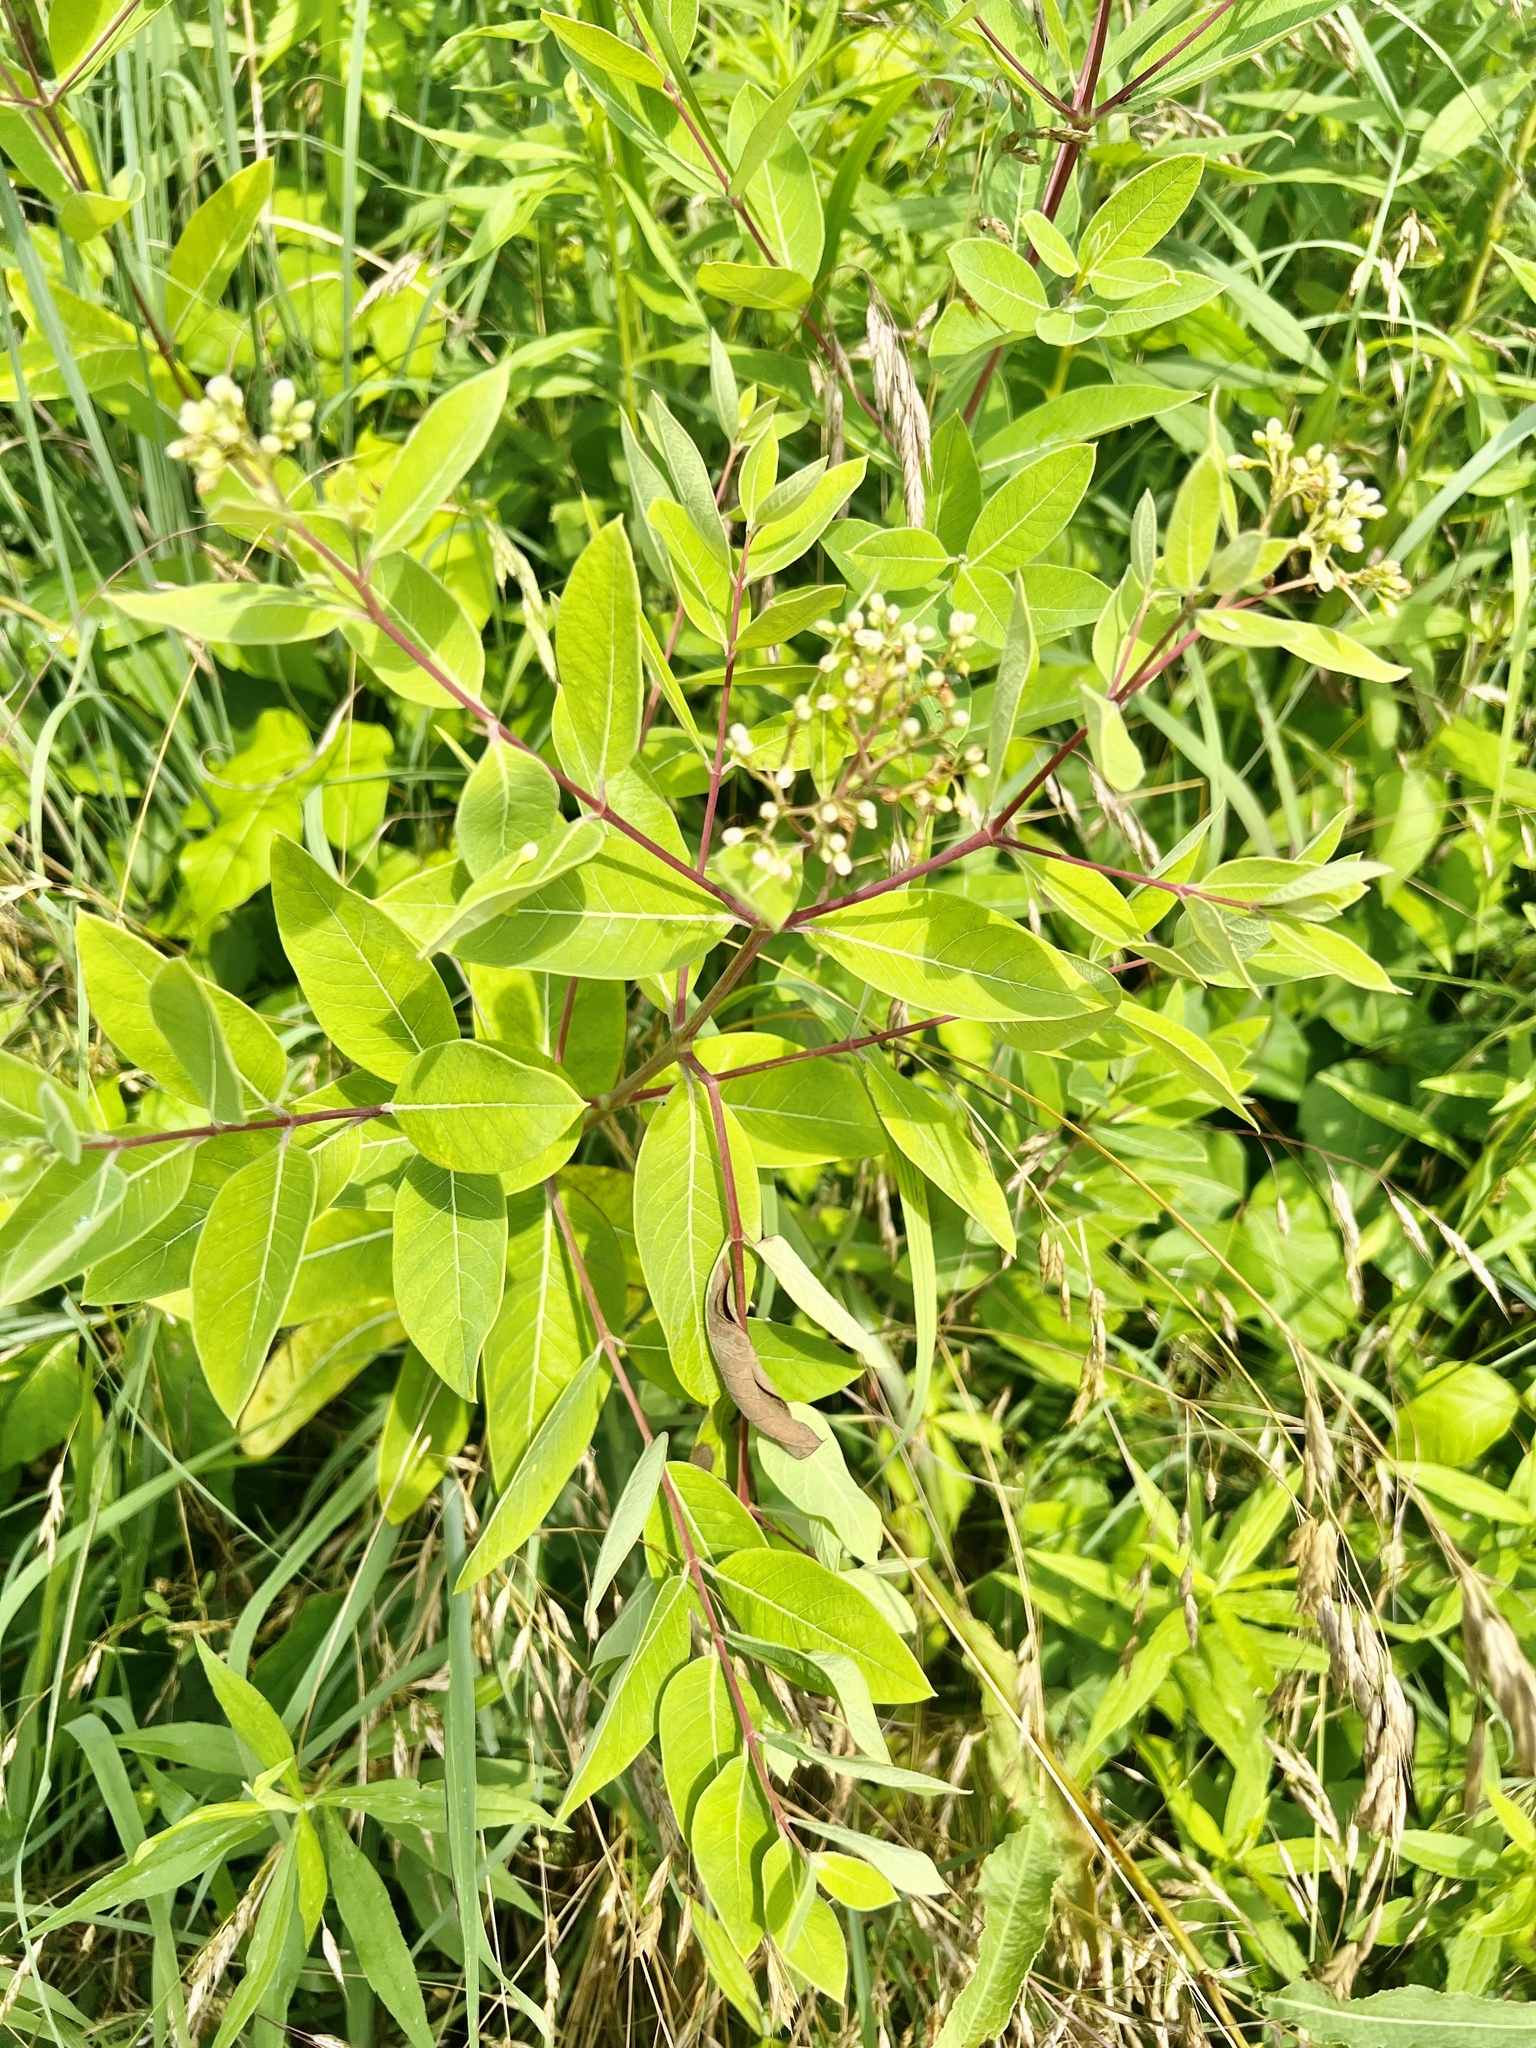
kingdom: Plantae
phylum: Tracheophyta
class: Magnoliopsida
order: Gentianales
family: Apocynaceae
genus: Apocynum
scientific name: Apocynum cannabinum
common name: Hemp dogbane
